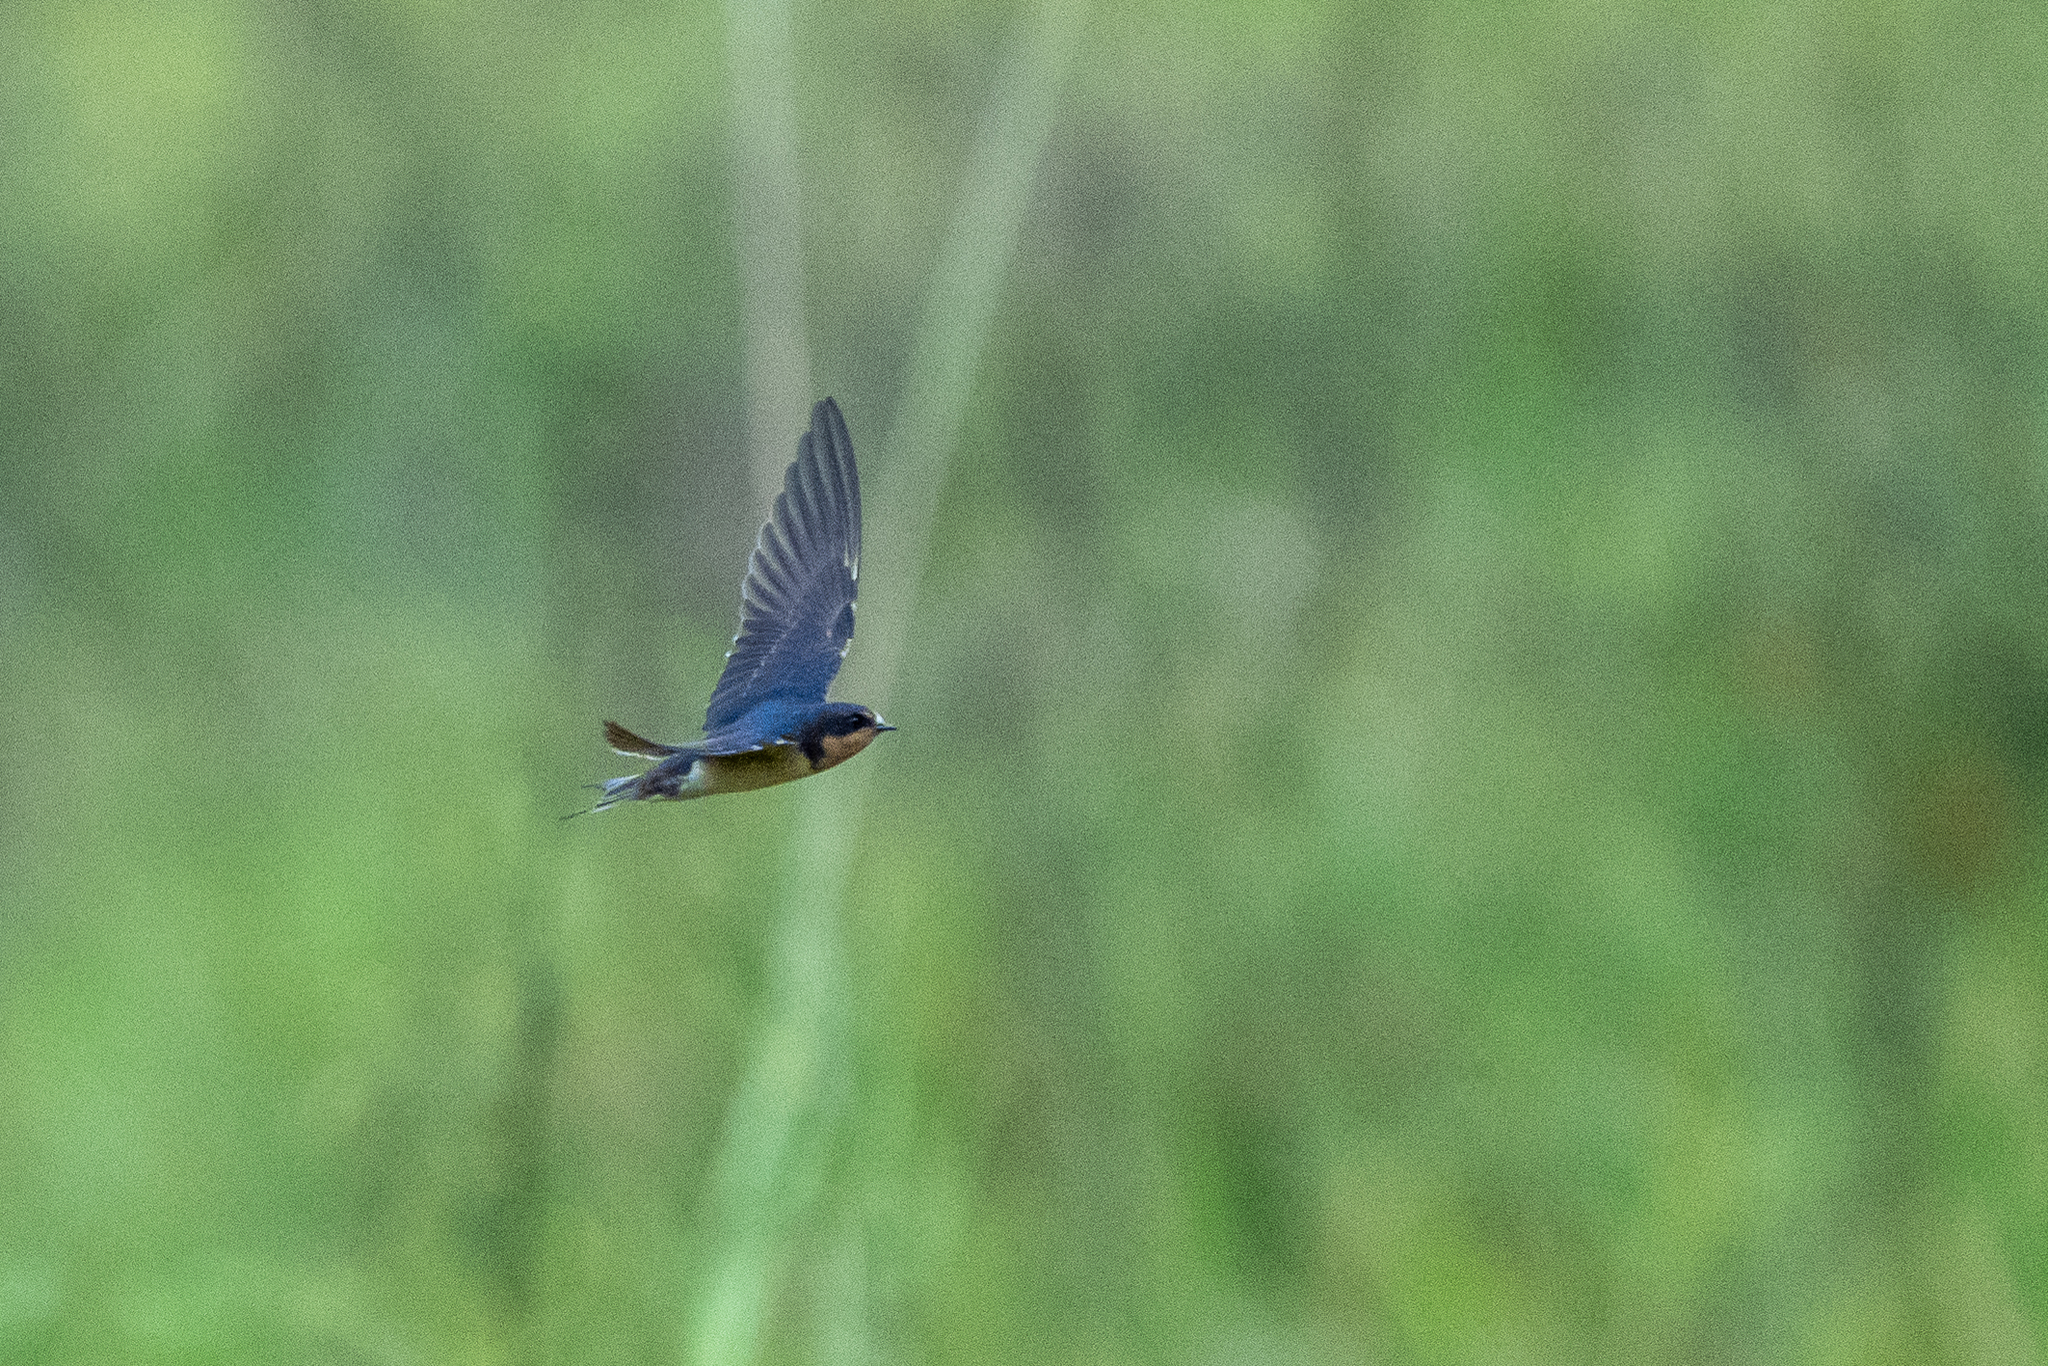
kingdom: Animalia
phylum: Chordata
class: Aves
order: Passeriformes
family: Hirundinidae
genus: Hirundo
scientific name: Hirundo rustica
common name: Barn swallow
